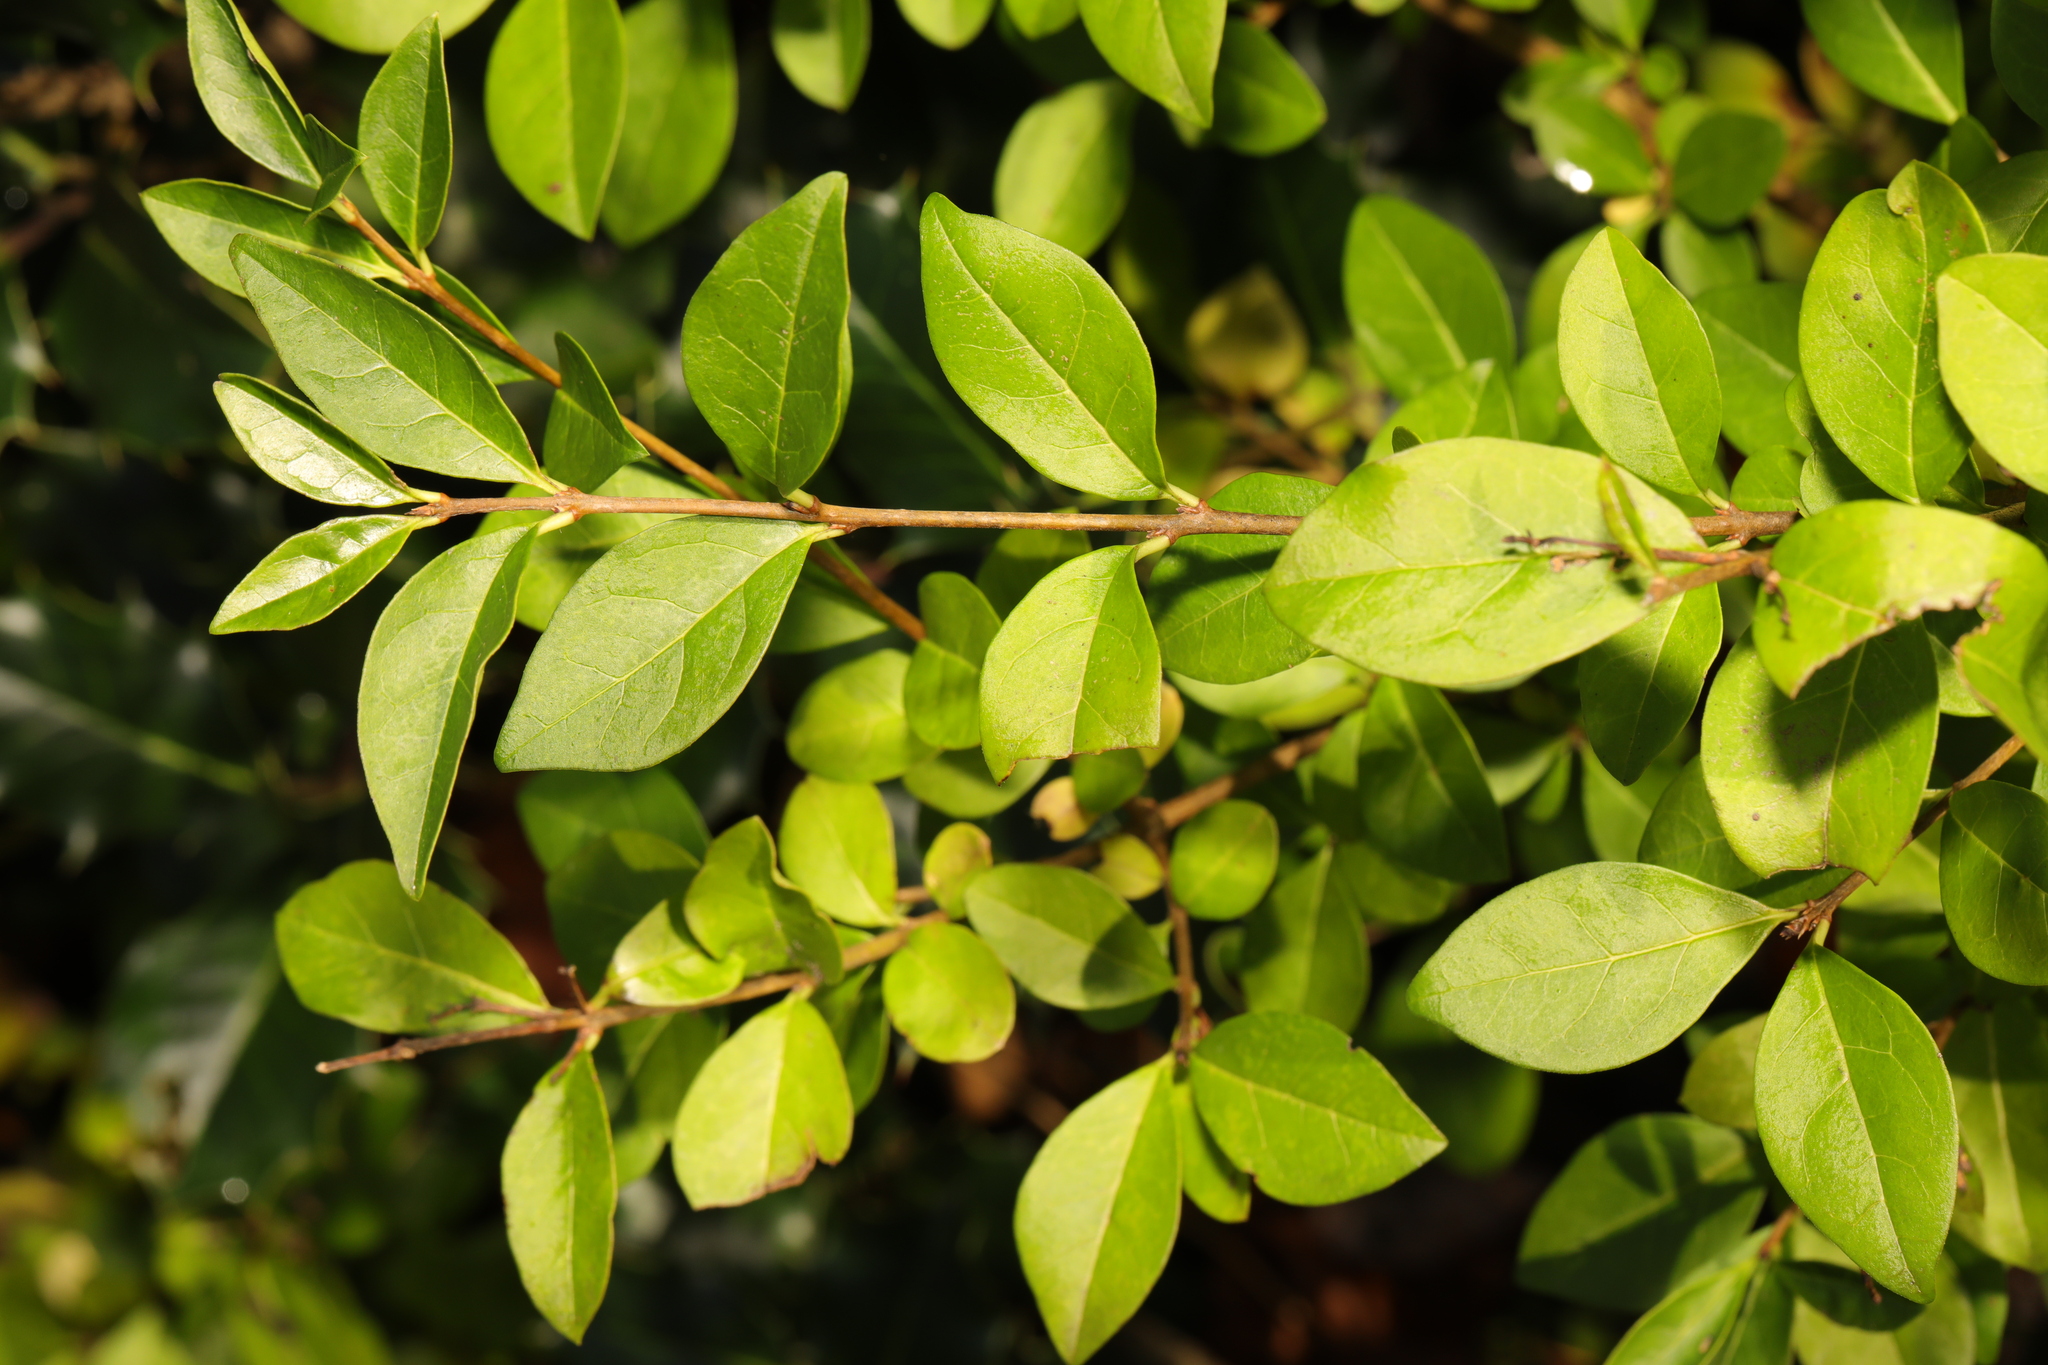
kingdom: Plantae
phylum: Tracheophyta
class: Magnoliopsida
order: Lamiales
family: Oleaceae
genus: Ligustrum
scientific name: Ligustrum ovalifolium
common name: California privet
